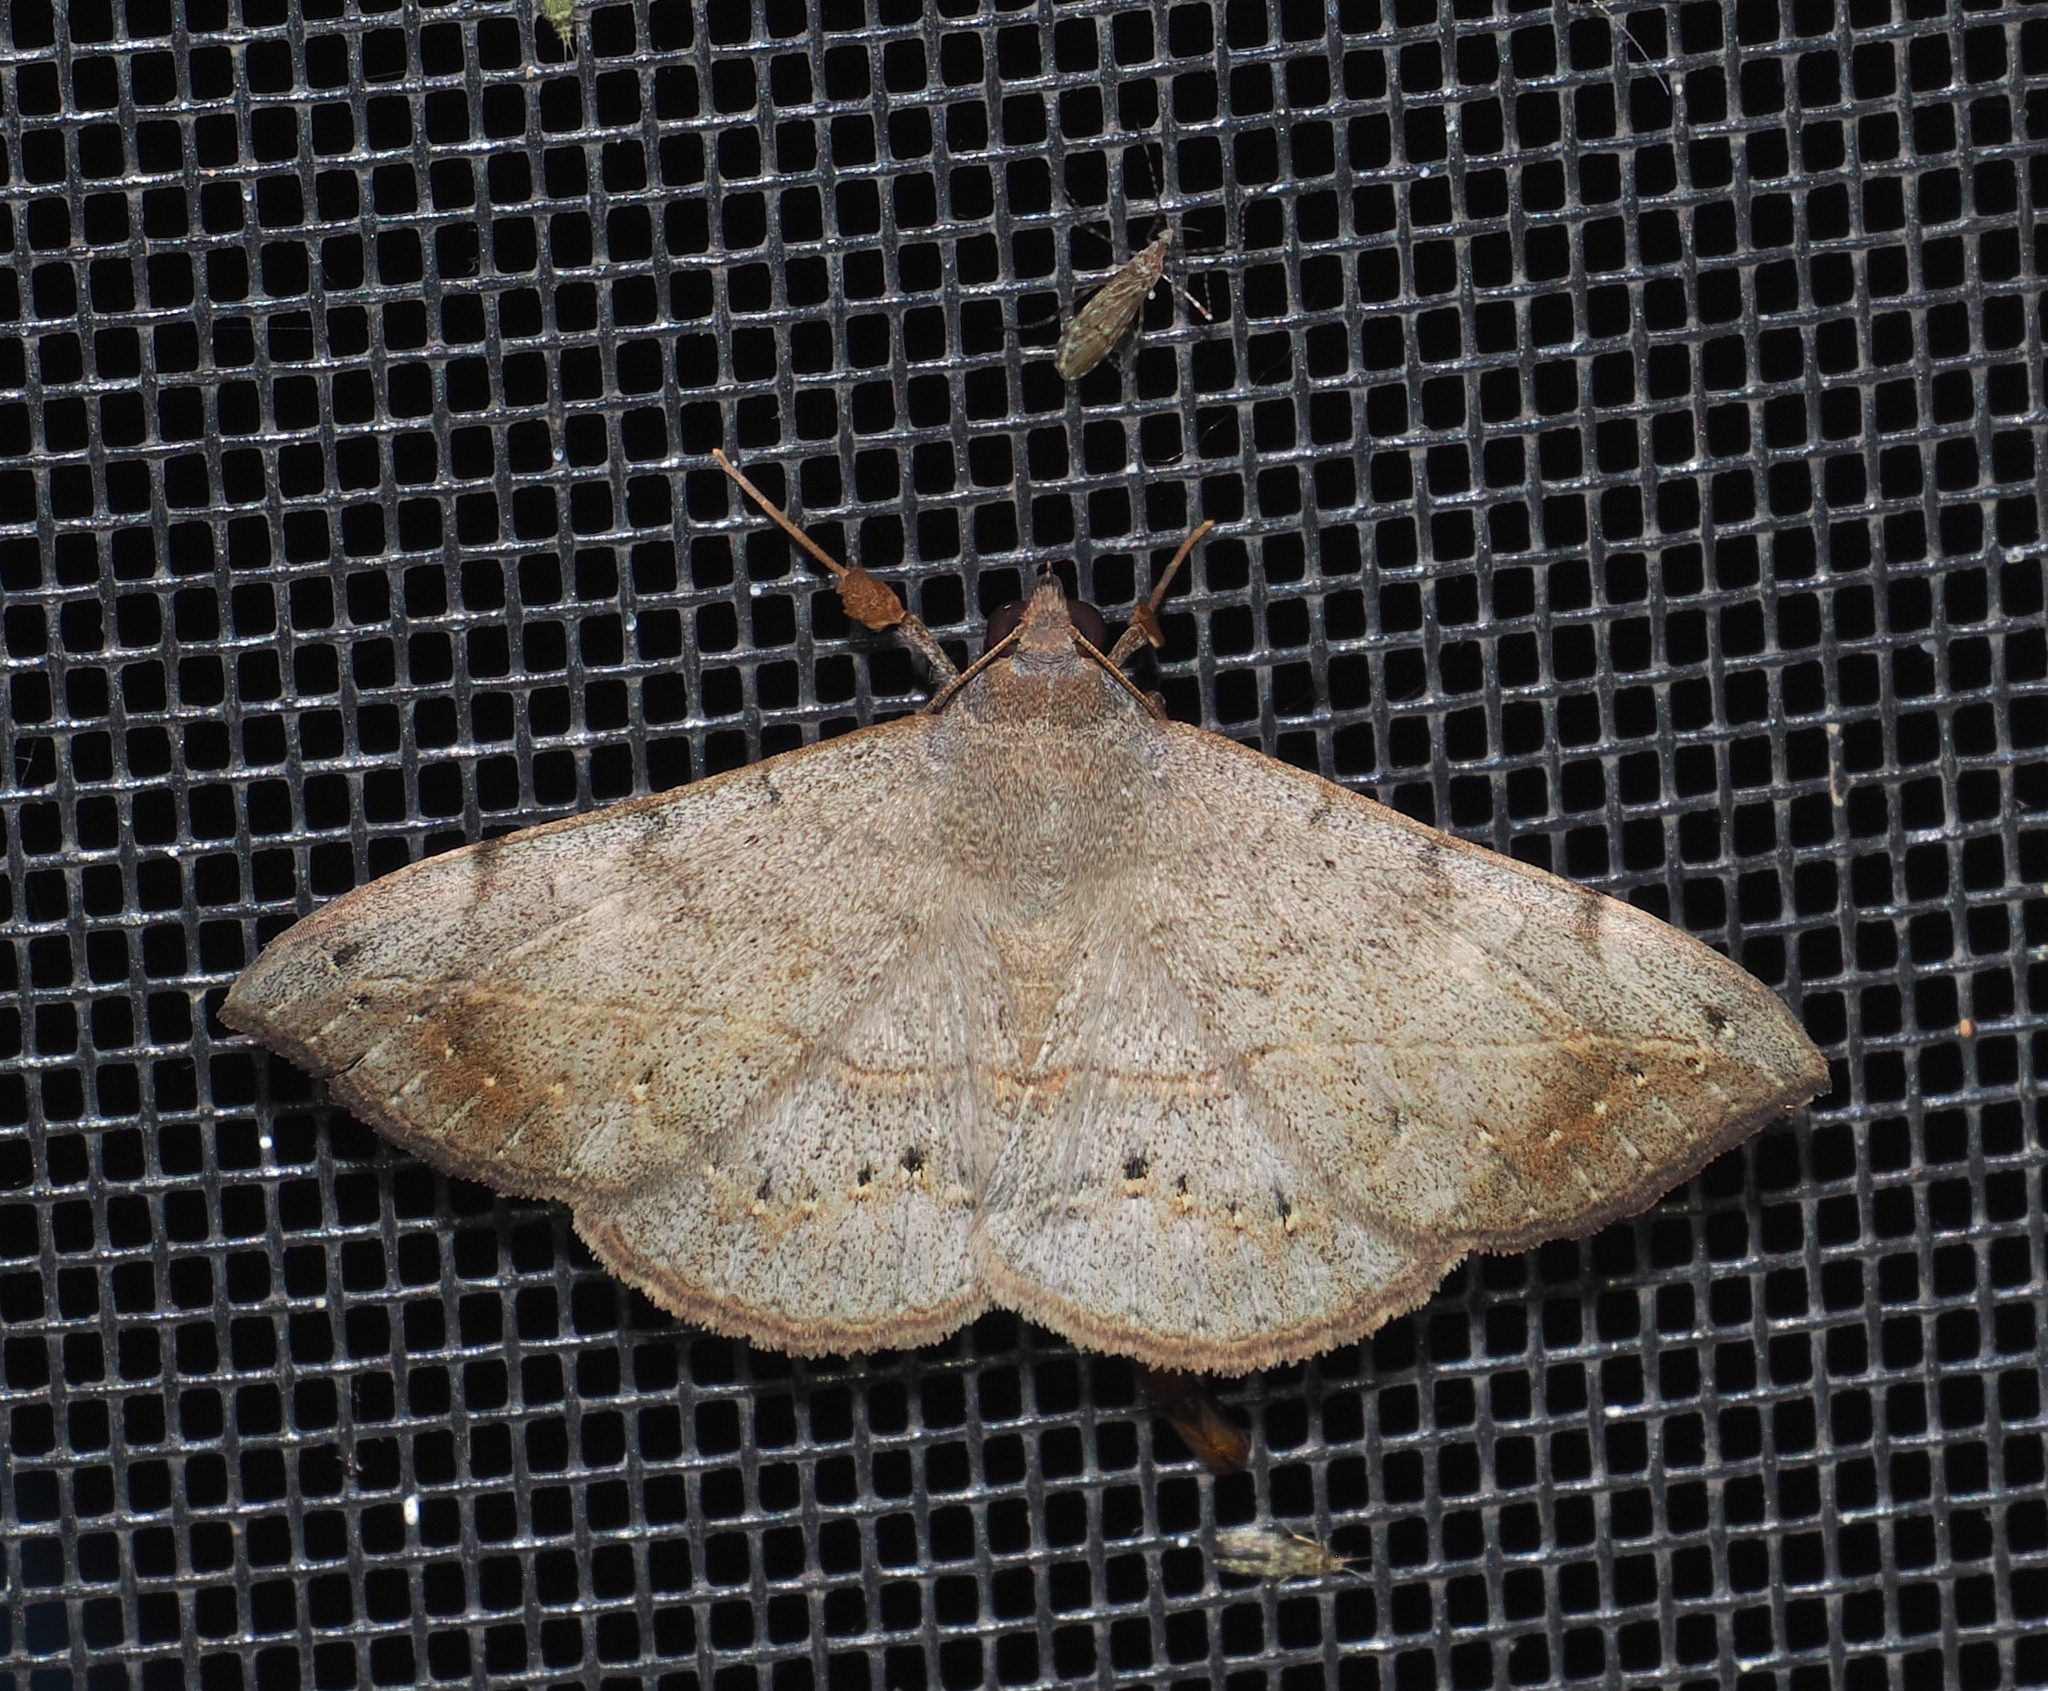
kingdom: Animalia
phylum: Arthropoda
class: Insecta
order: Lepidoptera
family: Erebidae
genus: Anticarsia
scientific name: Anticarsia gemmatalis
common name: Cutworm moth
